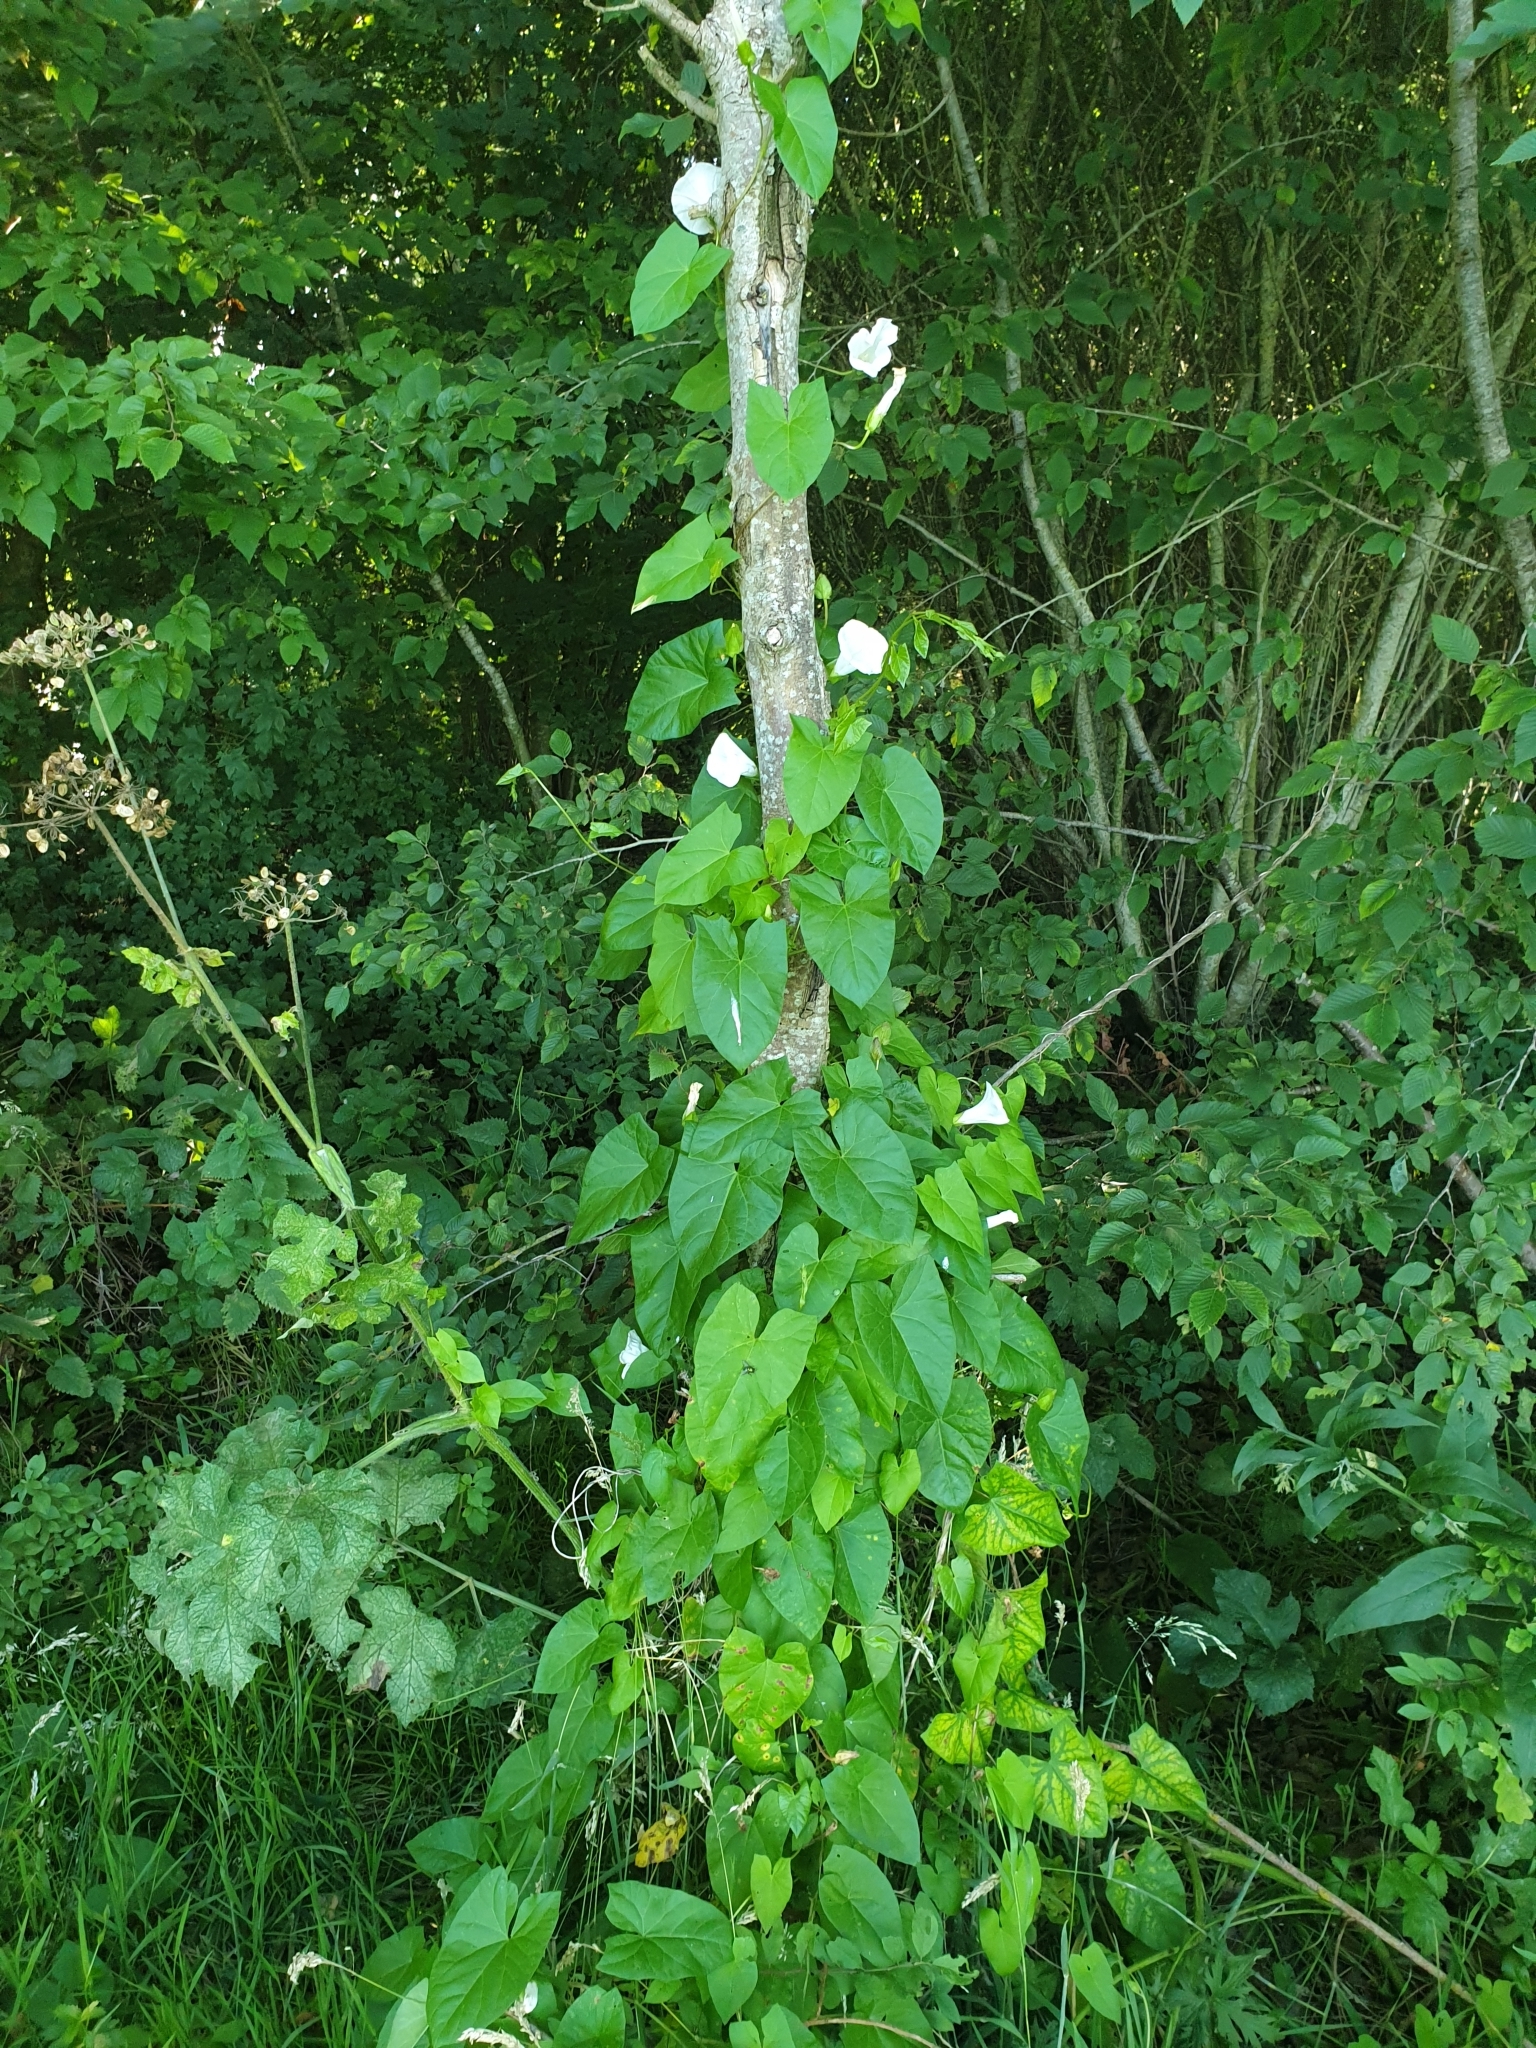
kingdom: Plantae
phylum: Tracheophyta
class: Magnoliopsida
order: Solanales
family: Convolvulaceae
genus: Calystegia
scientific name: Calystegia sepium
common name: Hedge bindweed
